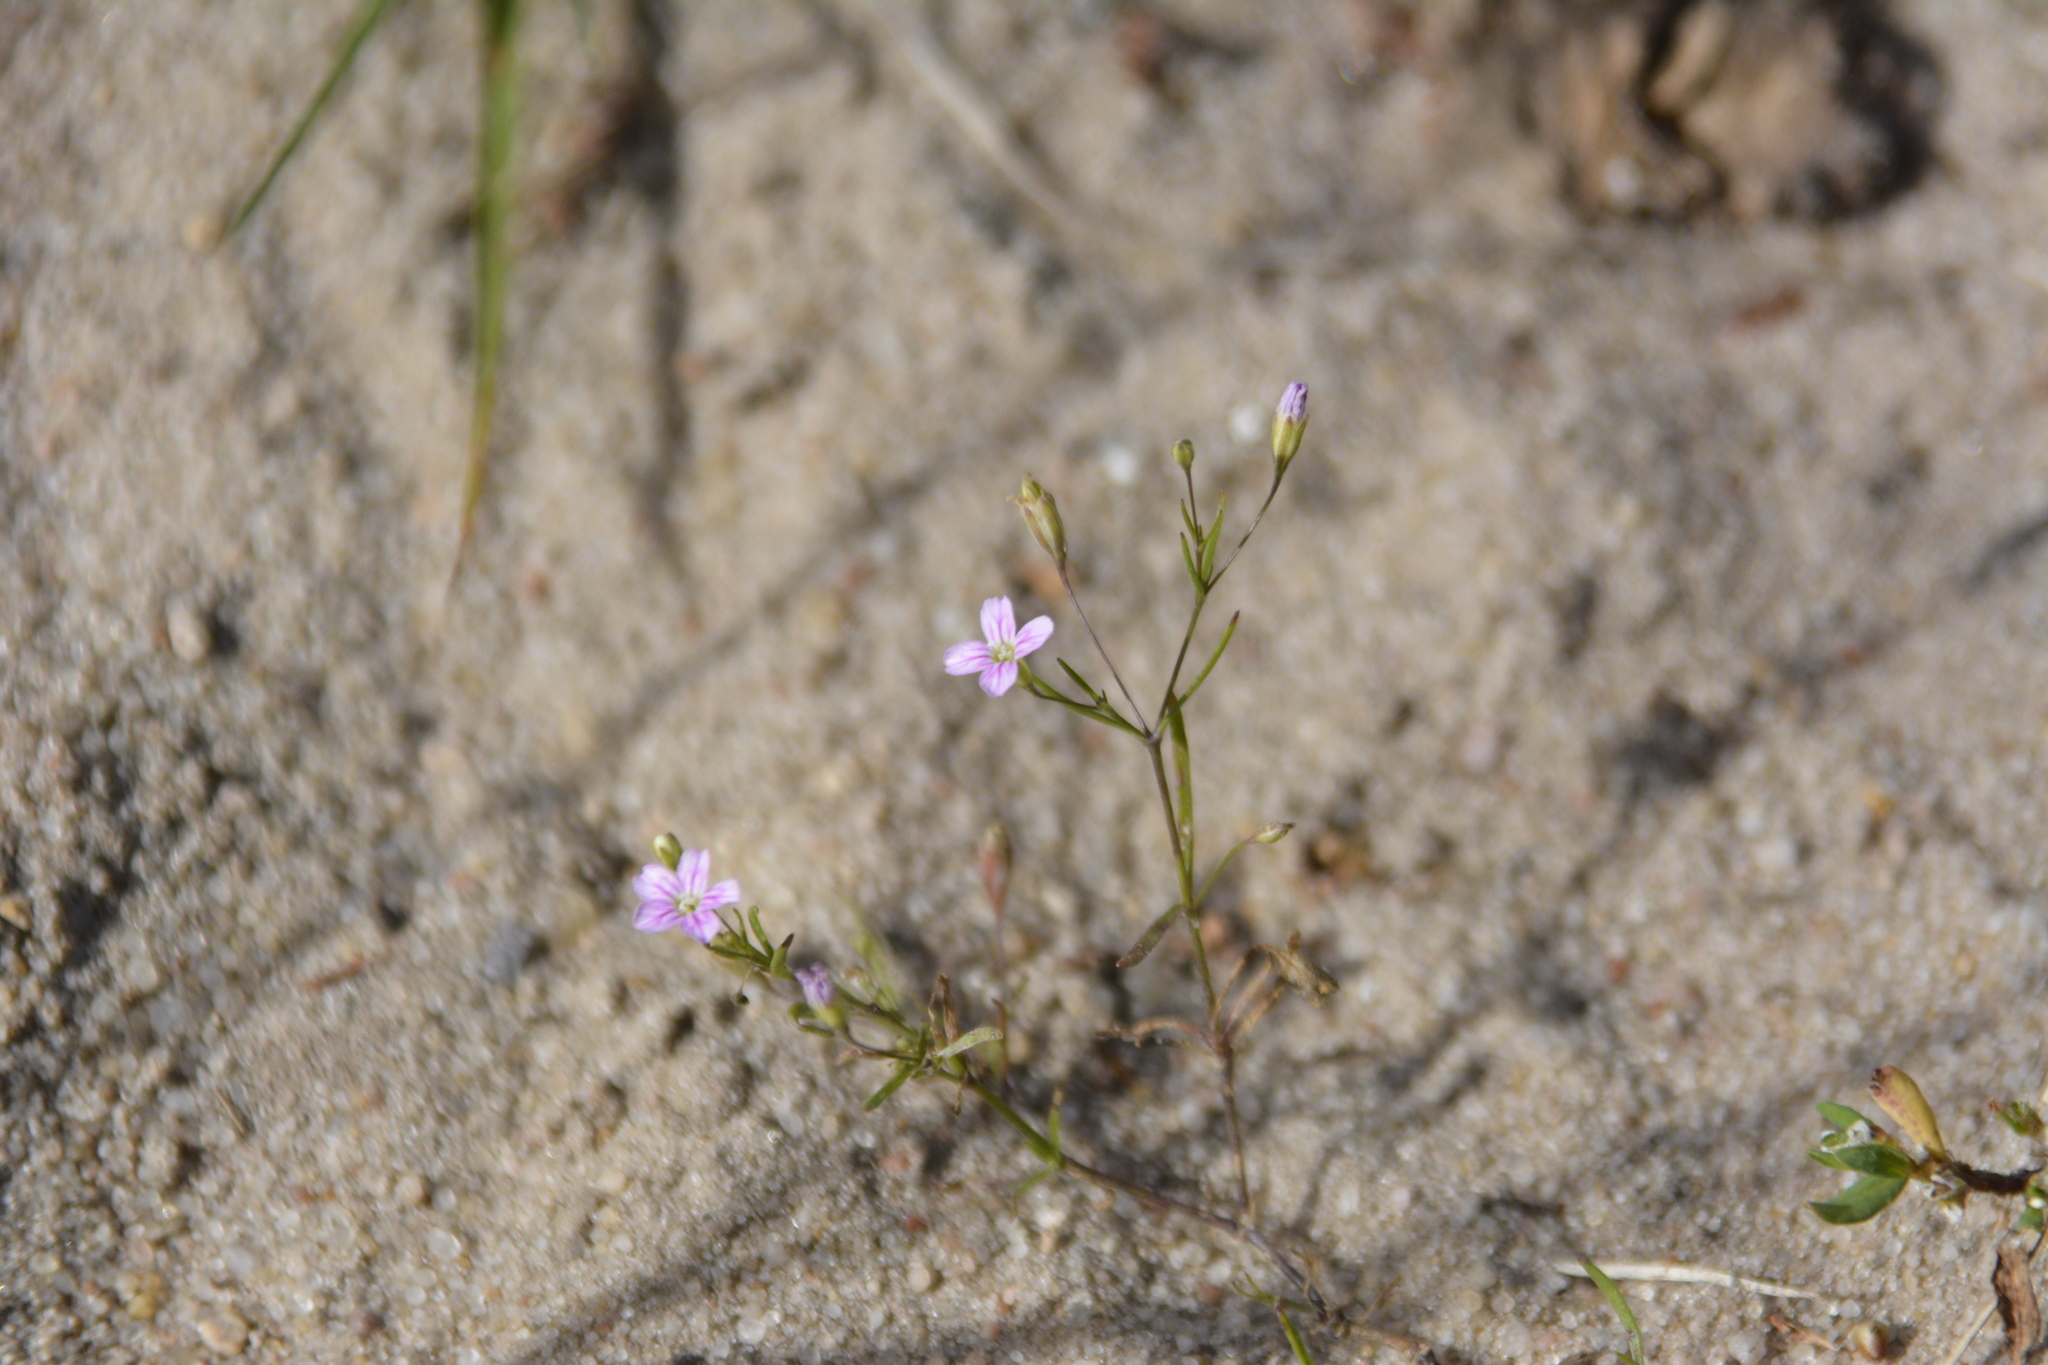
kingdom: Plantae
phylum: Tracheophyta
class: Magnoliopsida
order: Caryophyllales
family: Caryophyllaceae
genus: Psammophiliella
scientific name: Psammophiliella muralis
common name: Cushion baby's-breath
